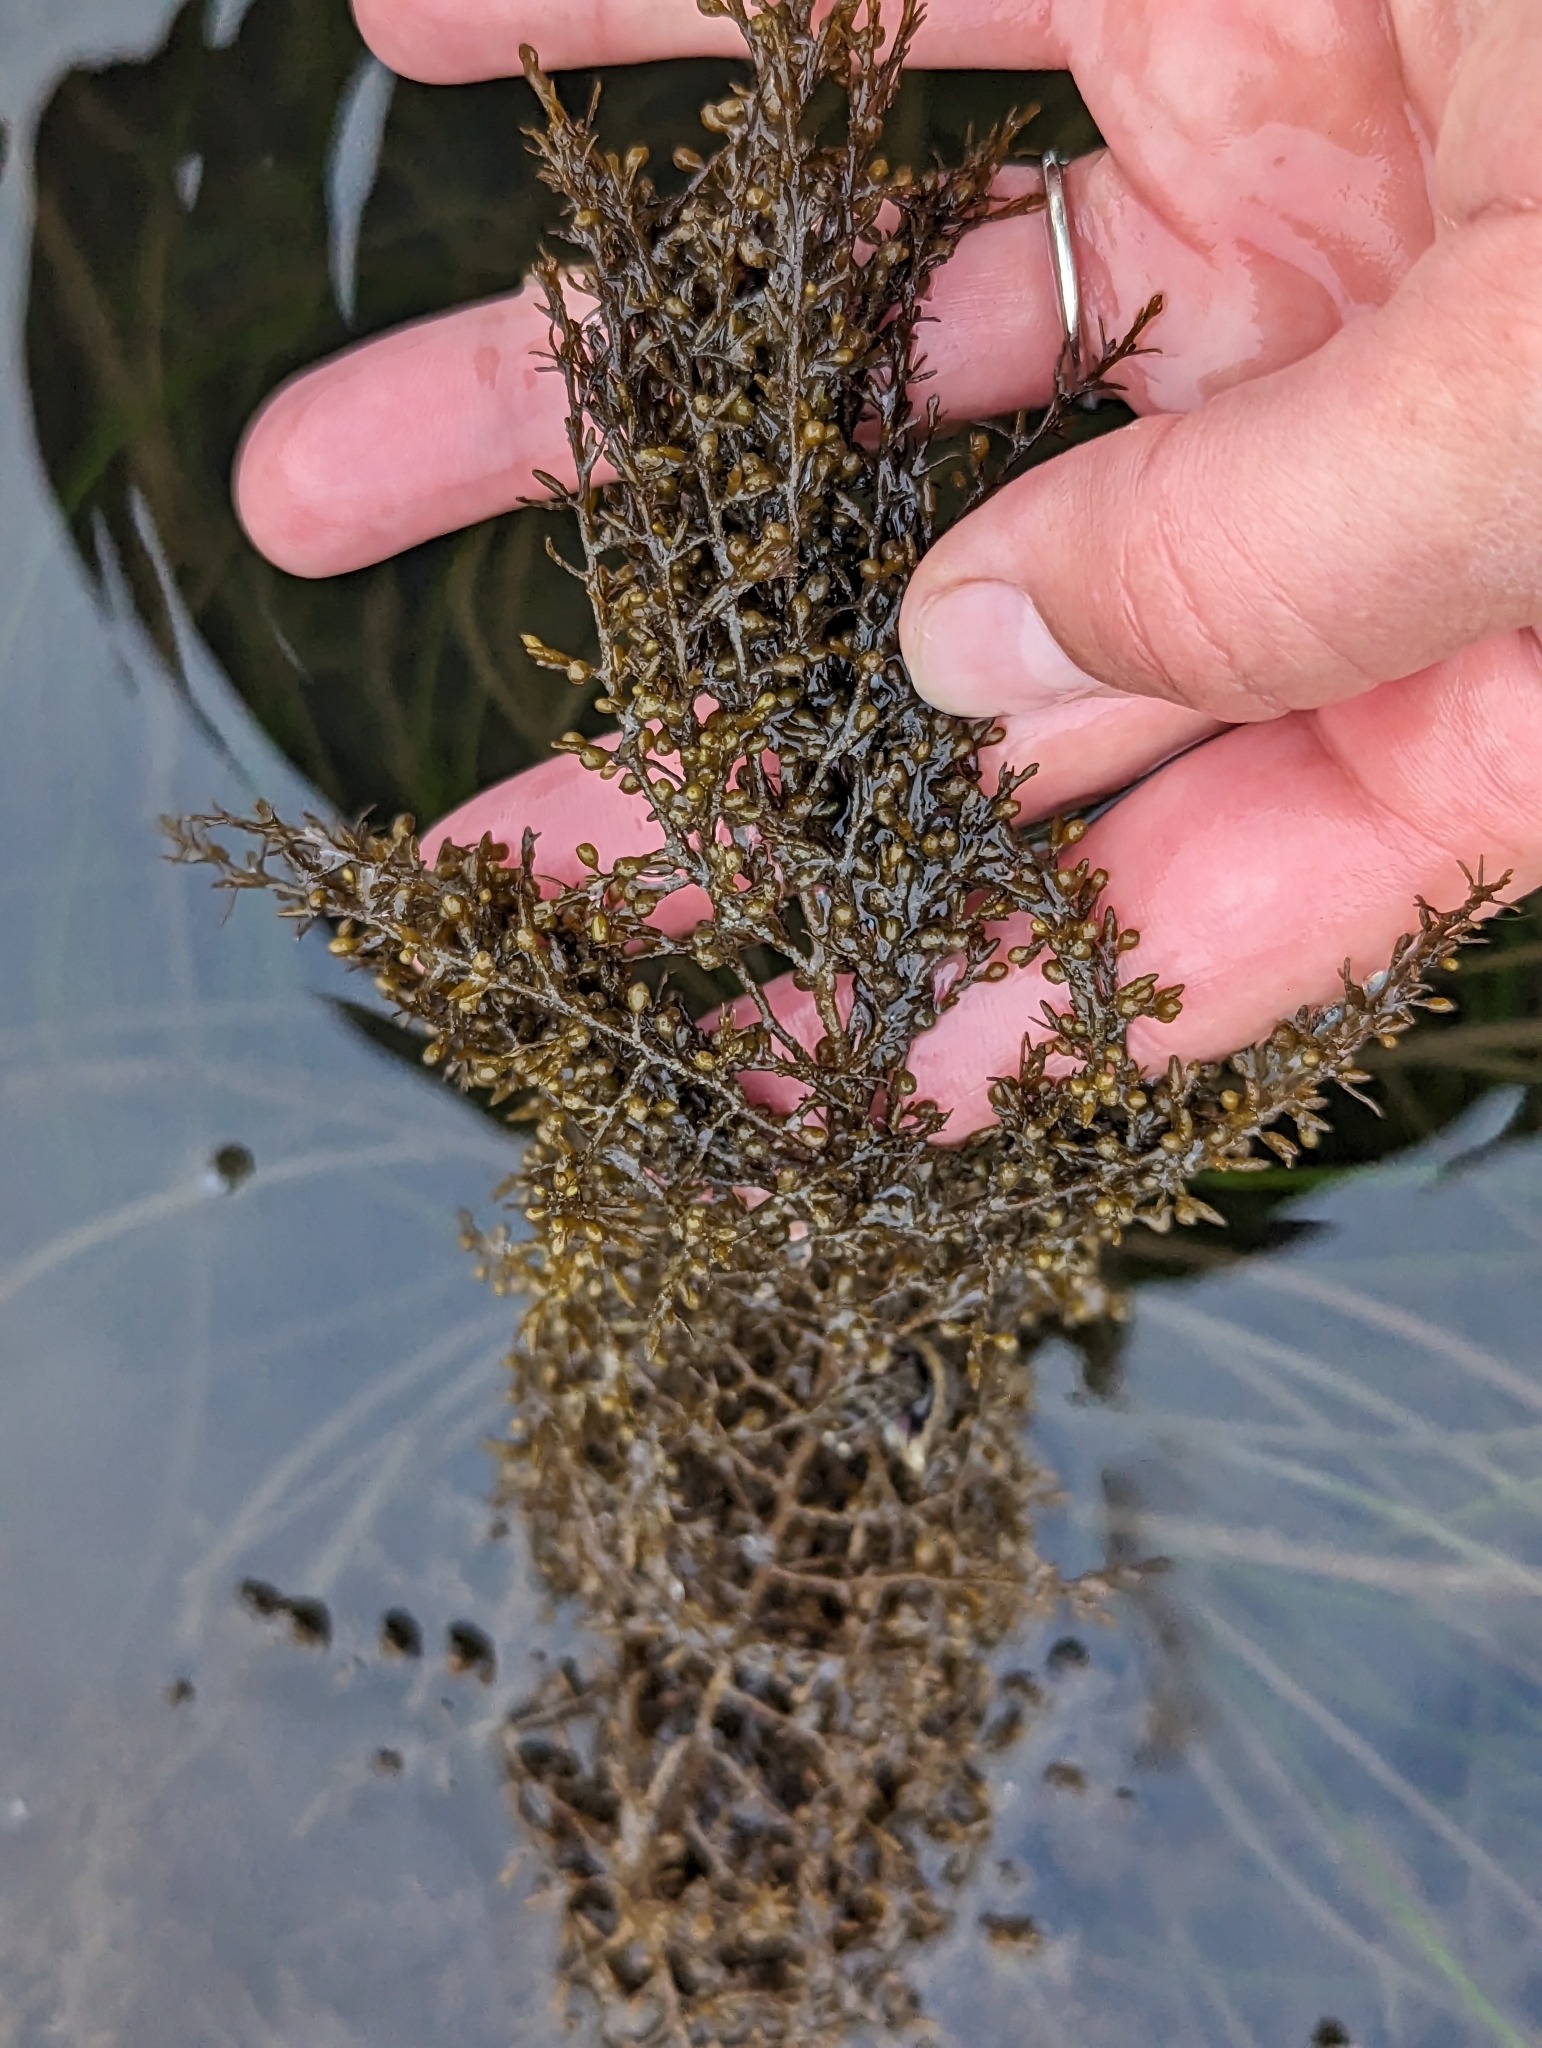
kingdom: Chromista
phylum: Ochrophyta
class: Phaeophyceae
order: Fucales
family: Sargassaceae
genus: Sargassum
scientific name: Sargassum muticum
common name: Japweed
